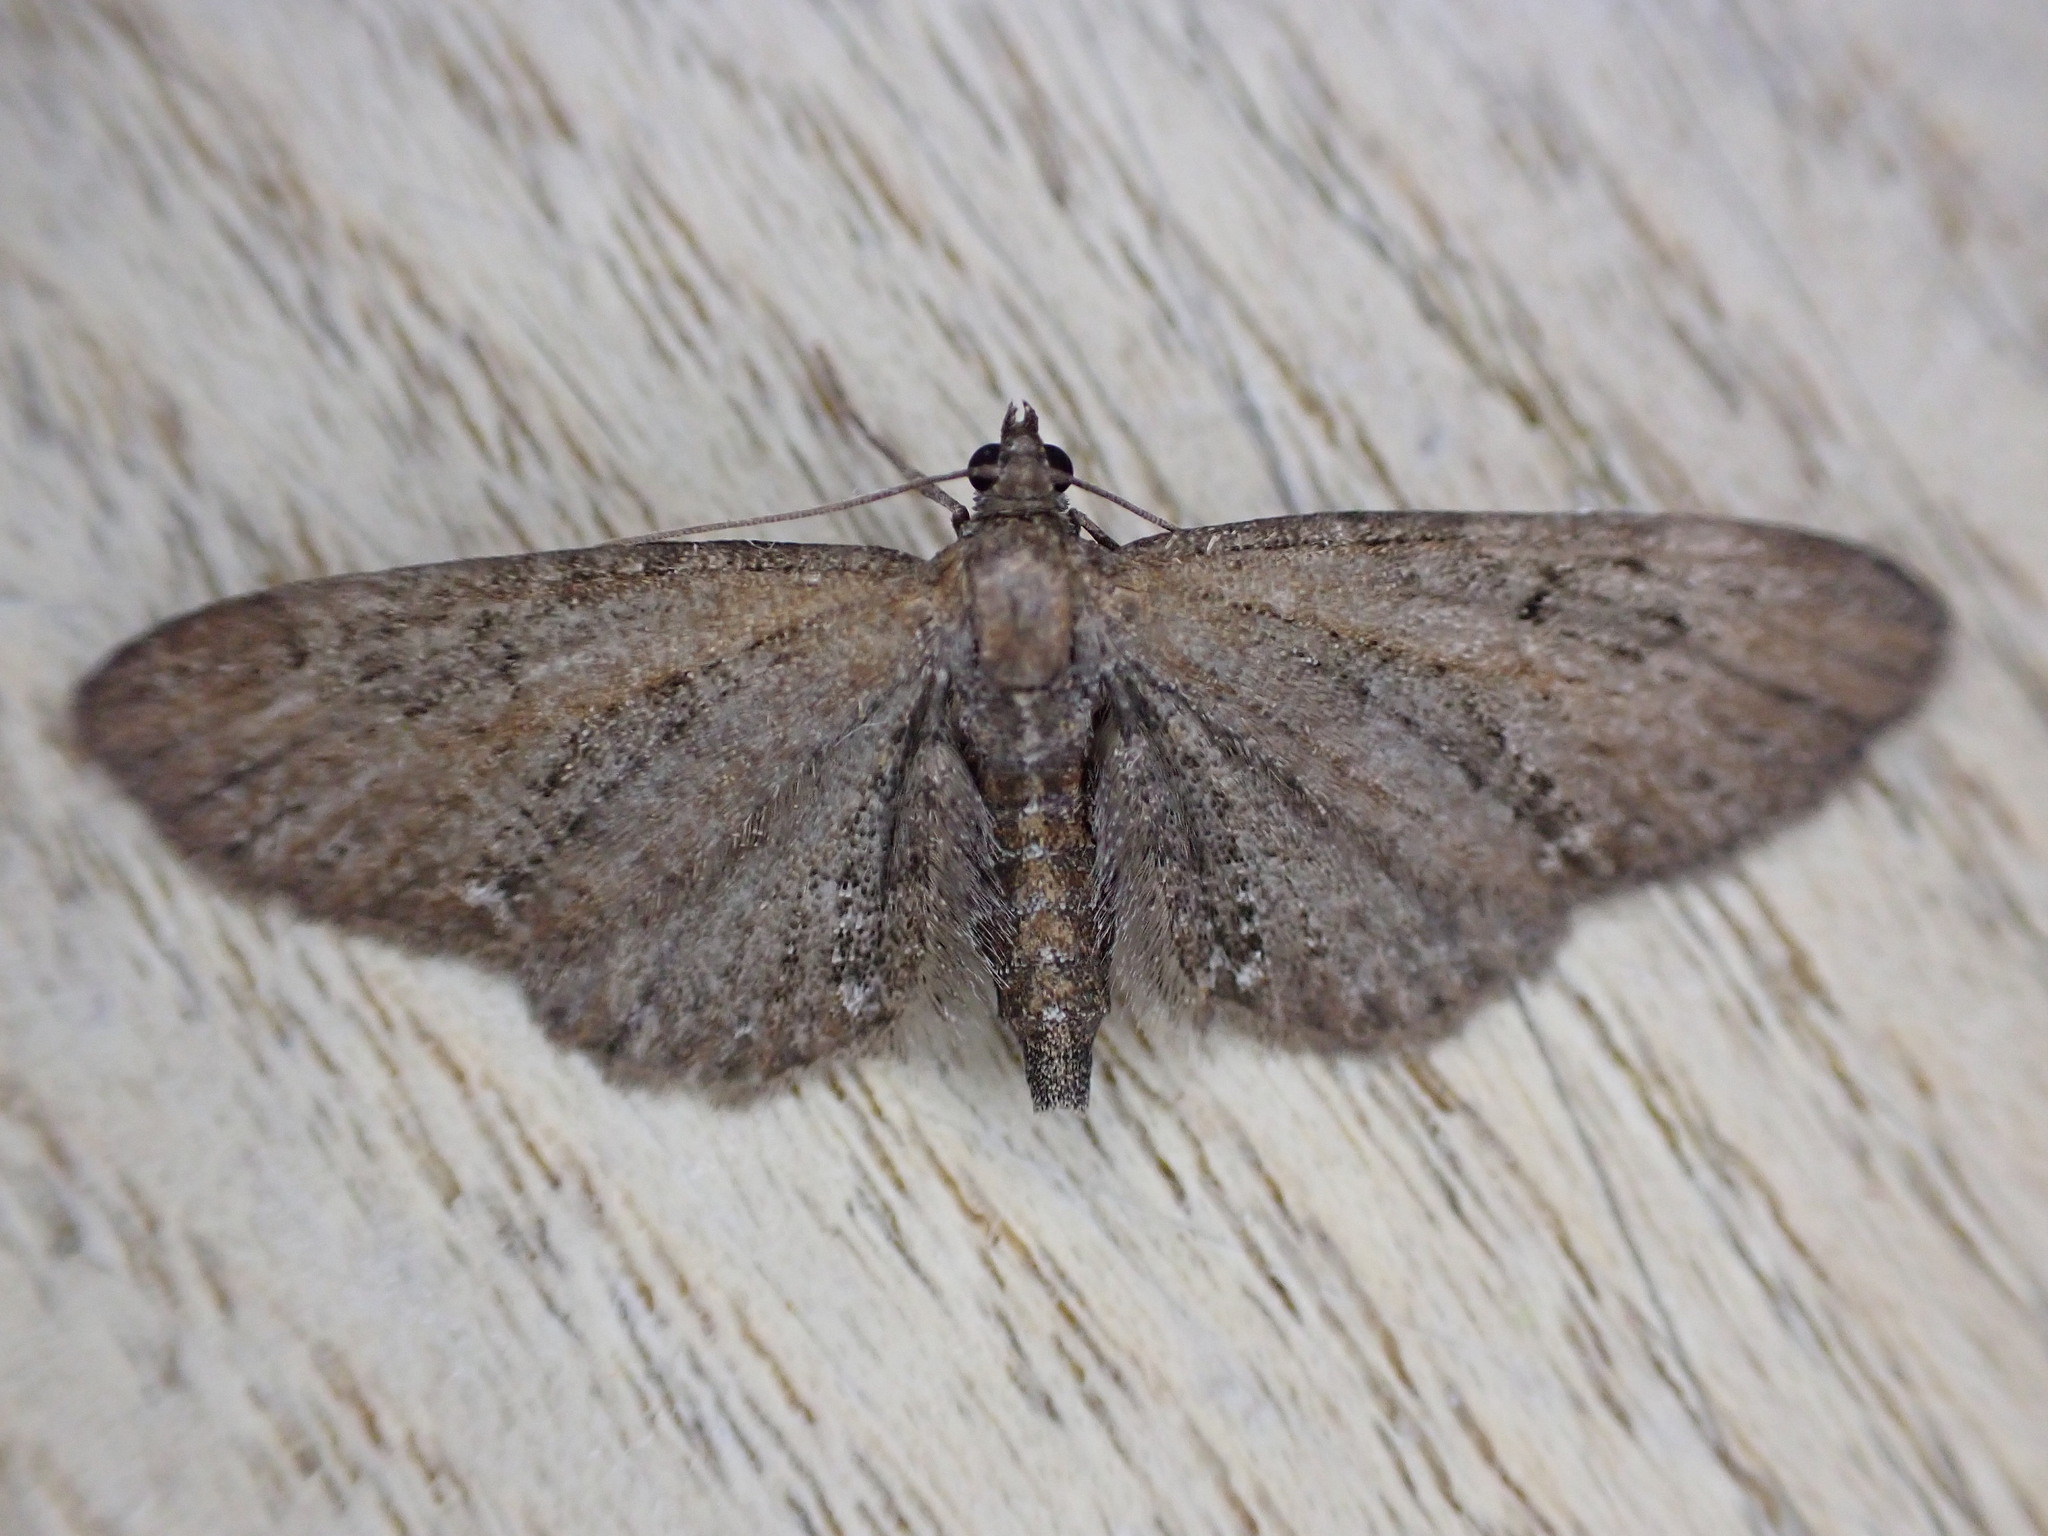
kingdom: Animalia
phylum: Arthropoda
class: Insecta
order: Lepidoptera
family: Geometridae
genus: Eupithecia
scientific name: Eupithecia vulgata
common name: Common pug
